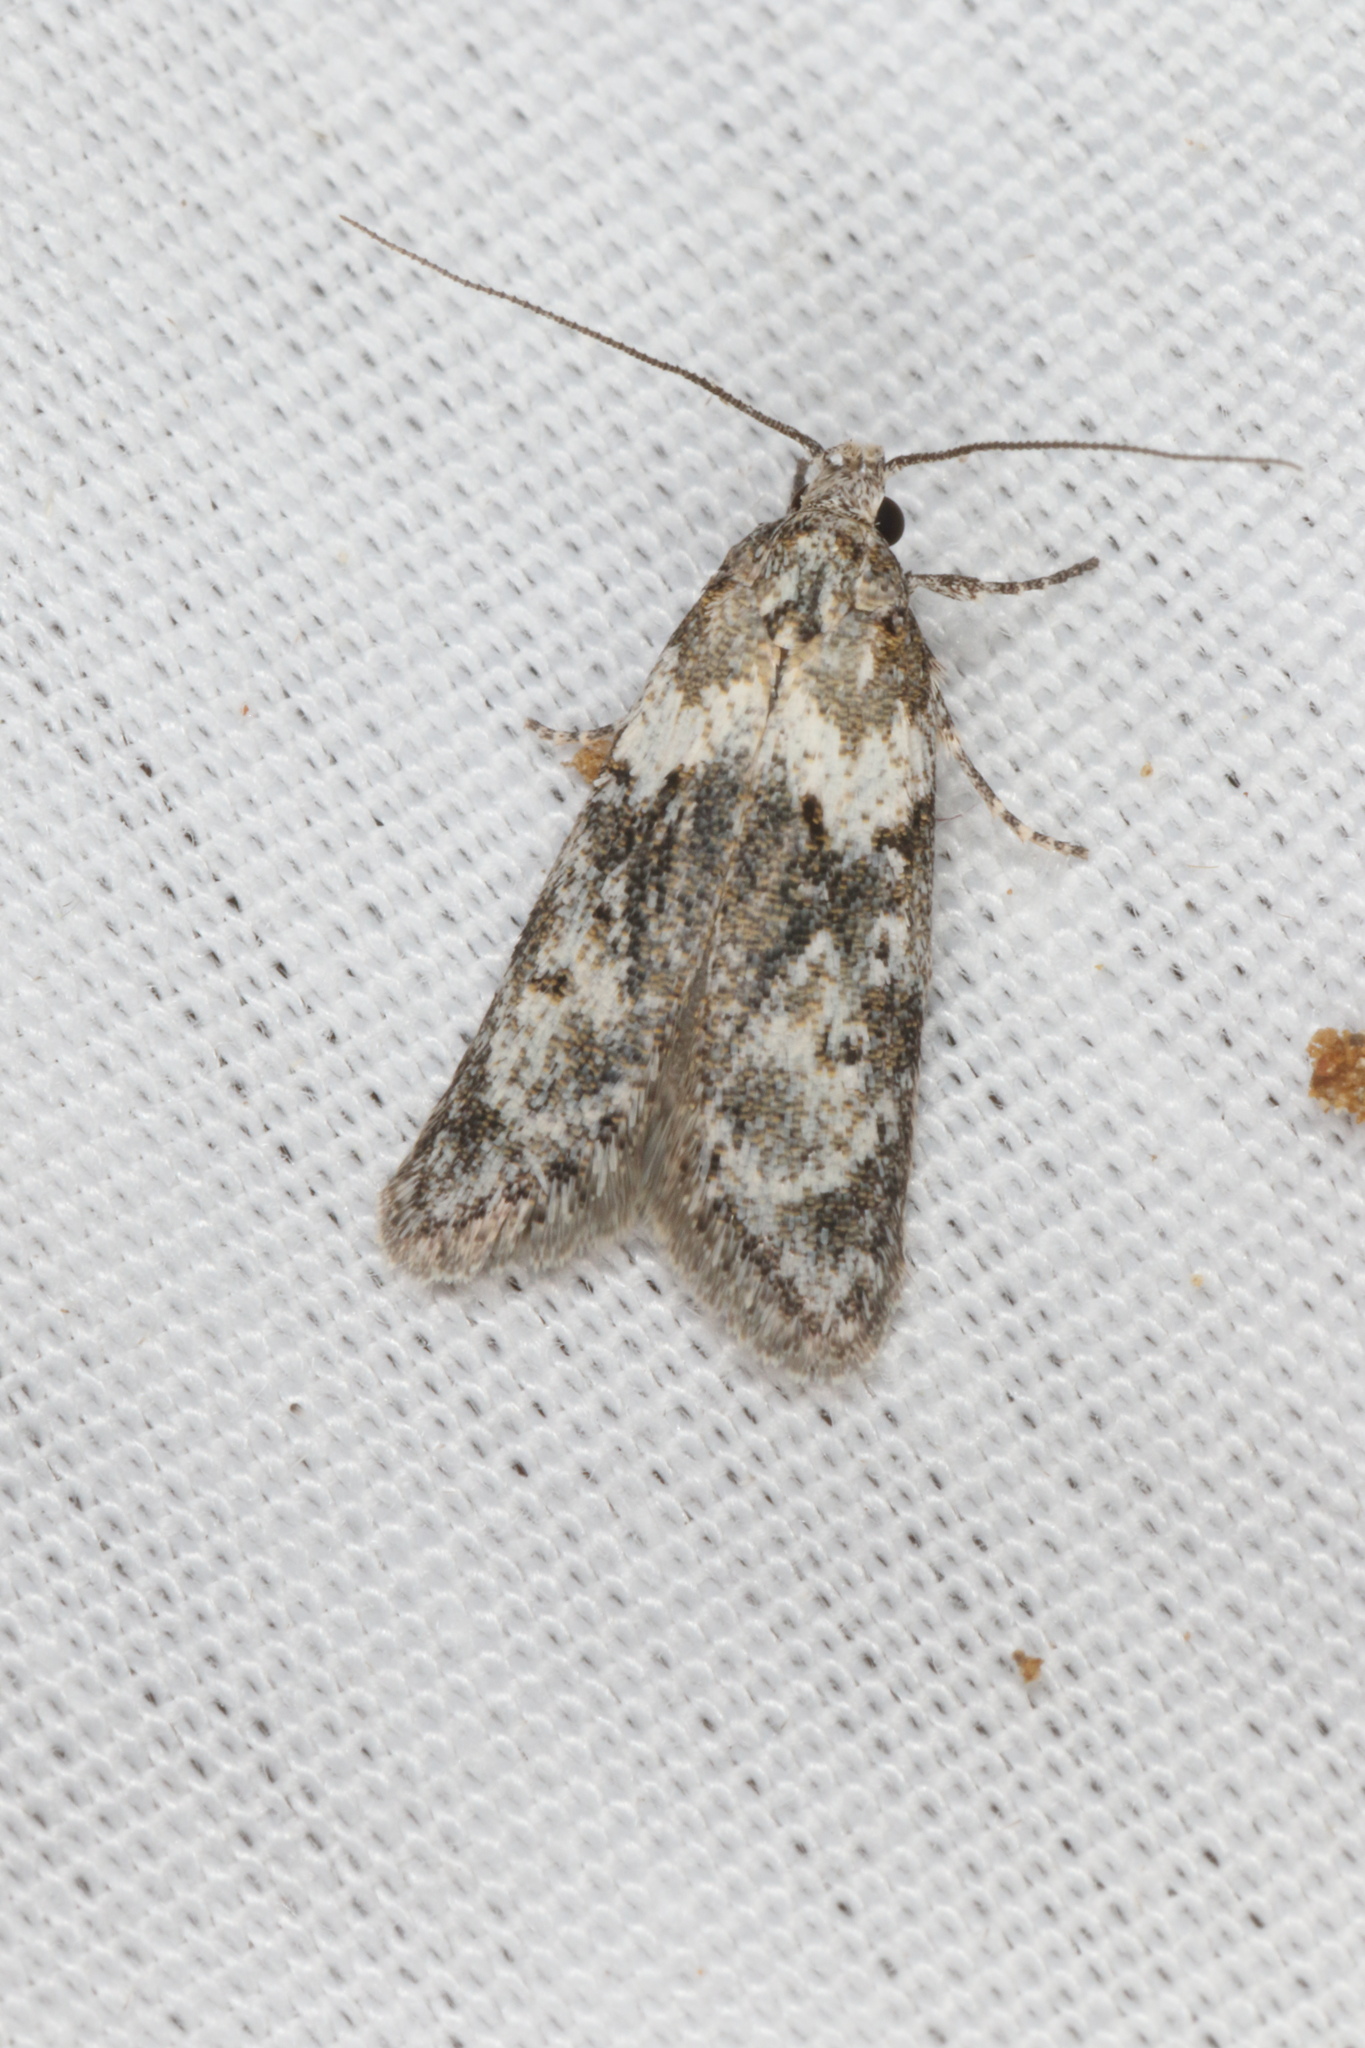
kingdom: Animalia
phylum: Arthropoda
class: Insecta
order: Lepidoptera
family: Oecophoridae
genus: Izatha
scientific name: Izatha convulsella
